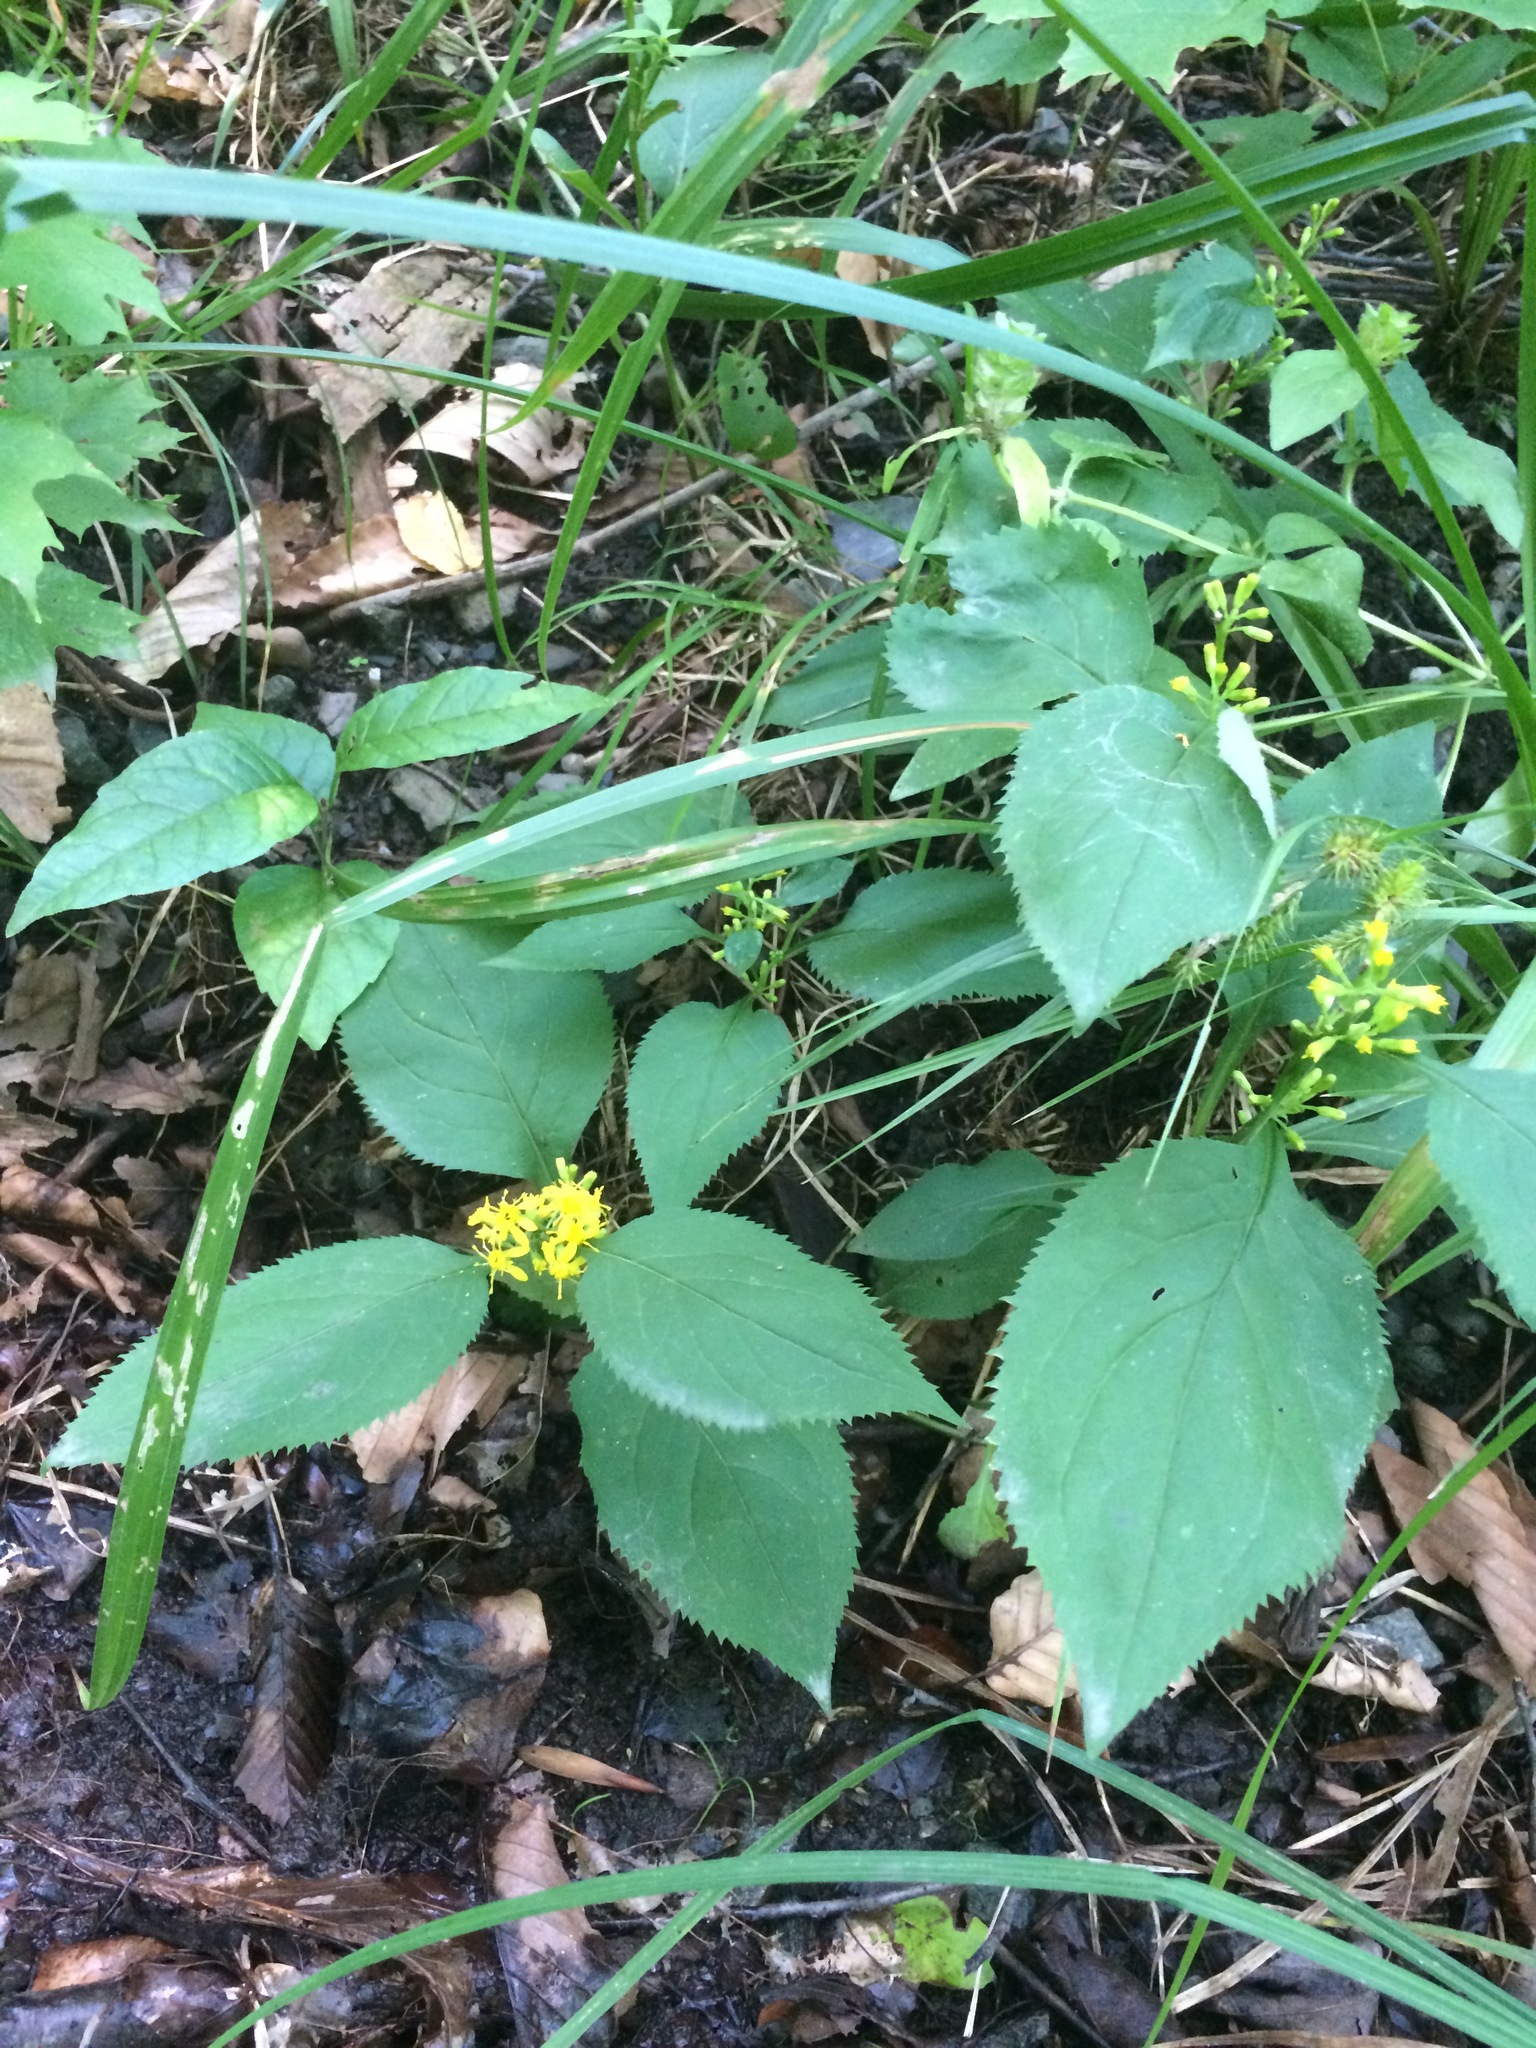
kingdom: Plantae
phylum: Tracheophyta
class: Magnoliopsida
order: Asterales
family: Asteraceae
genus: Solidago
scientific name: Solidago flexicaulis
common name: Zig-zag goldenrod
